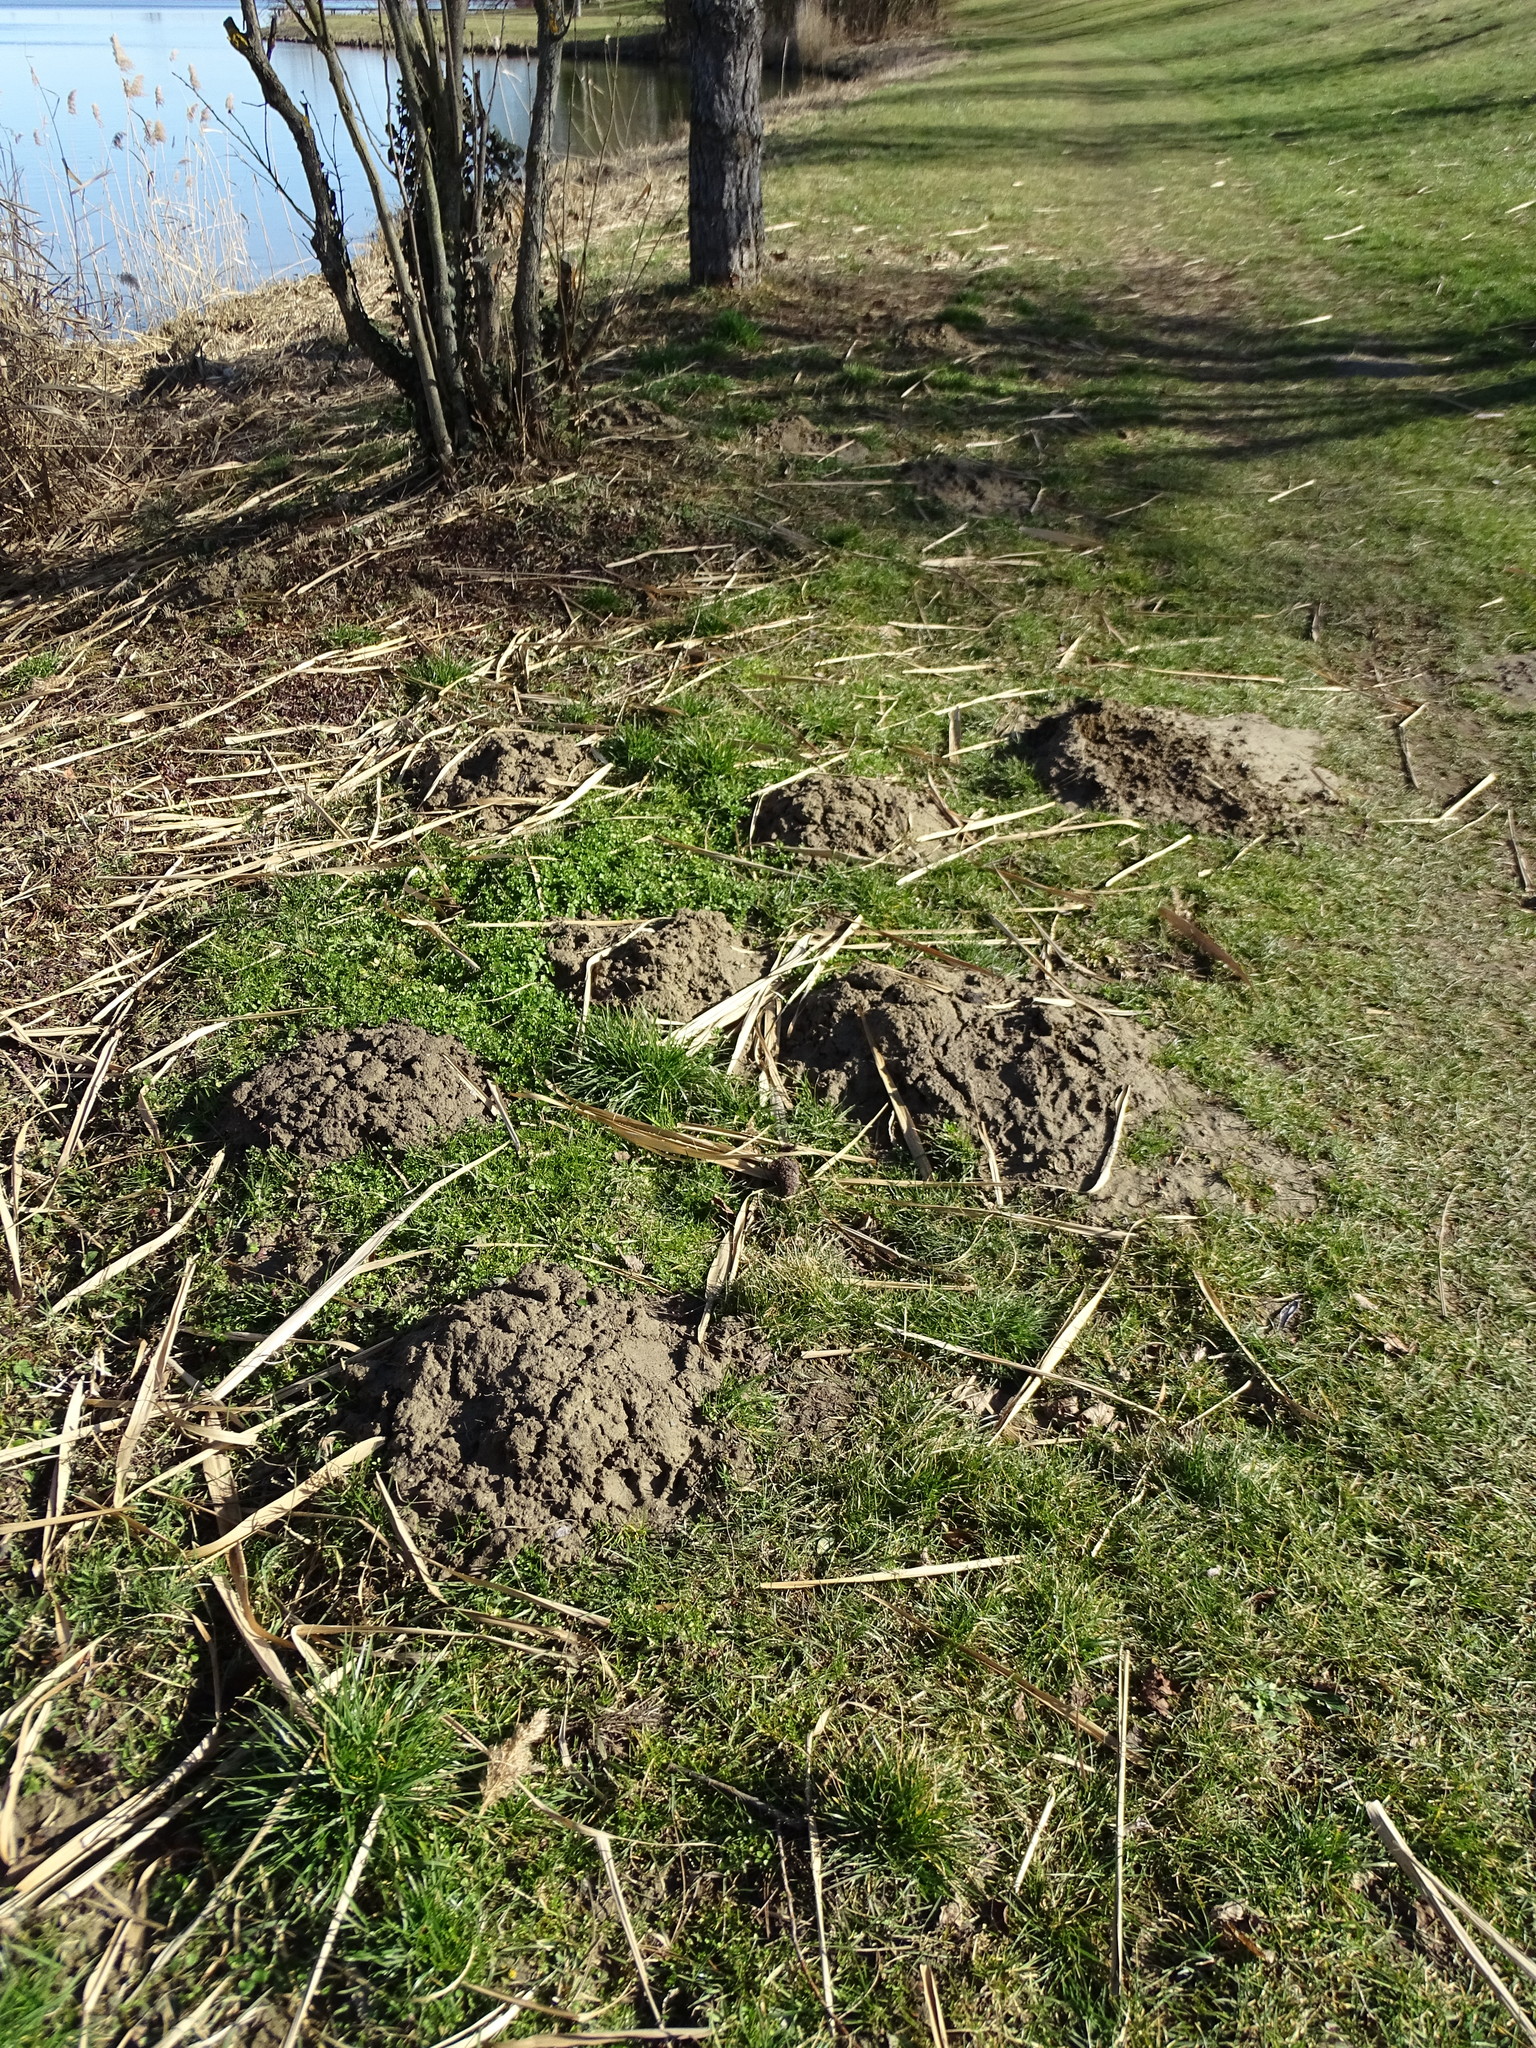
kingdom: Animalia
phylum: Chordata
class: Mammalia
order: Soricomorpha
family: Talpidae
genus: Talpa
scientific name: Talpa europaea
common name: European mole
